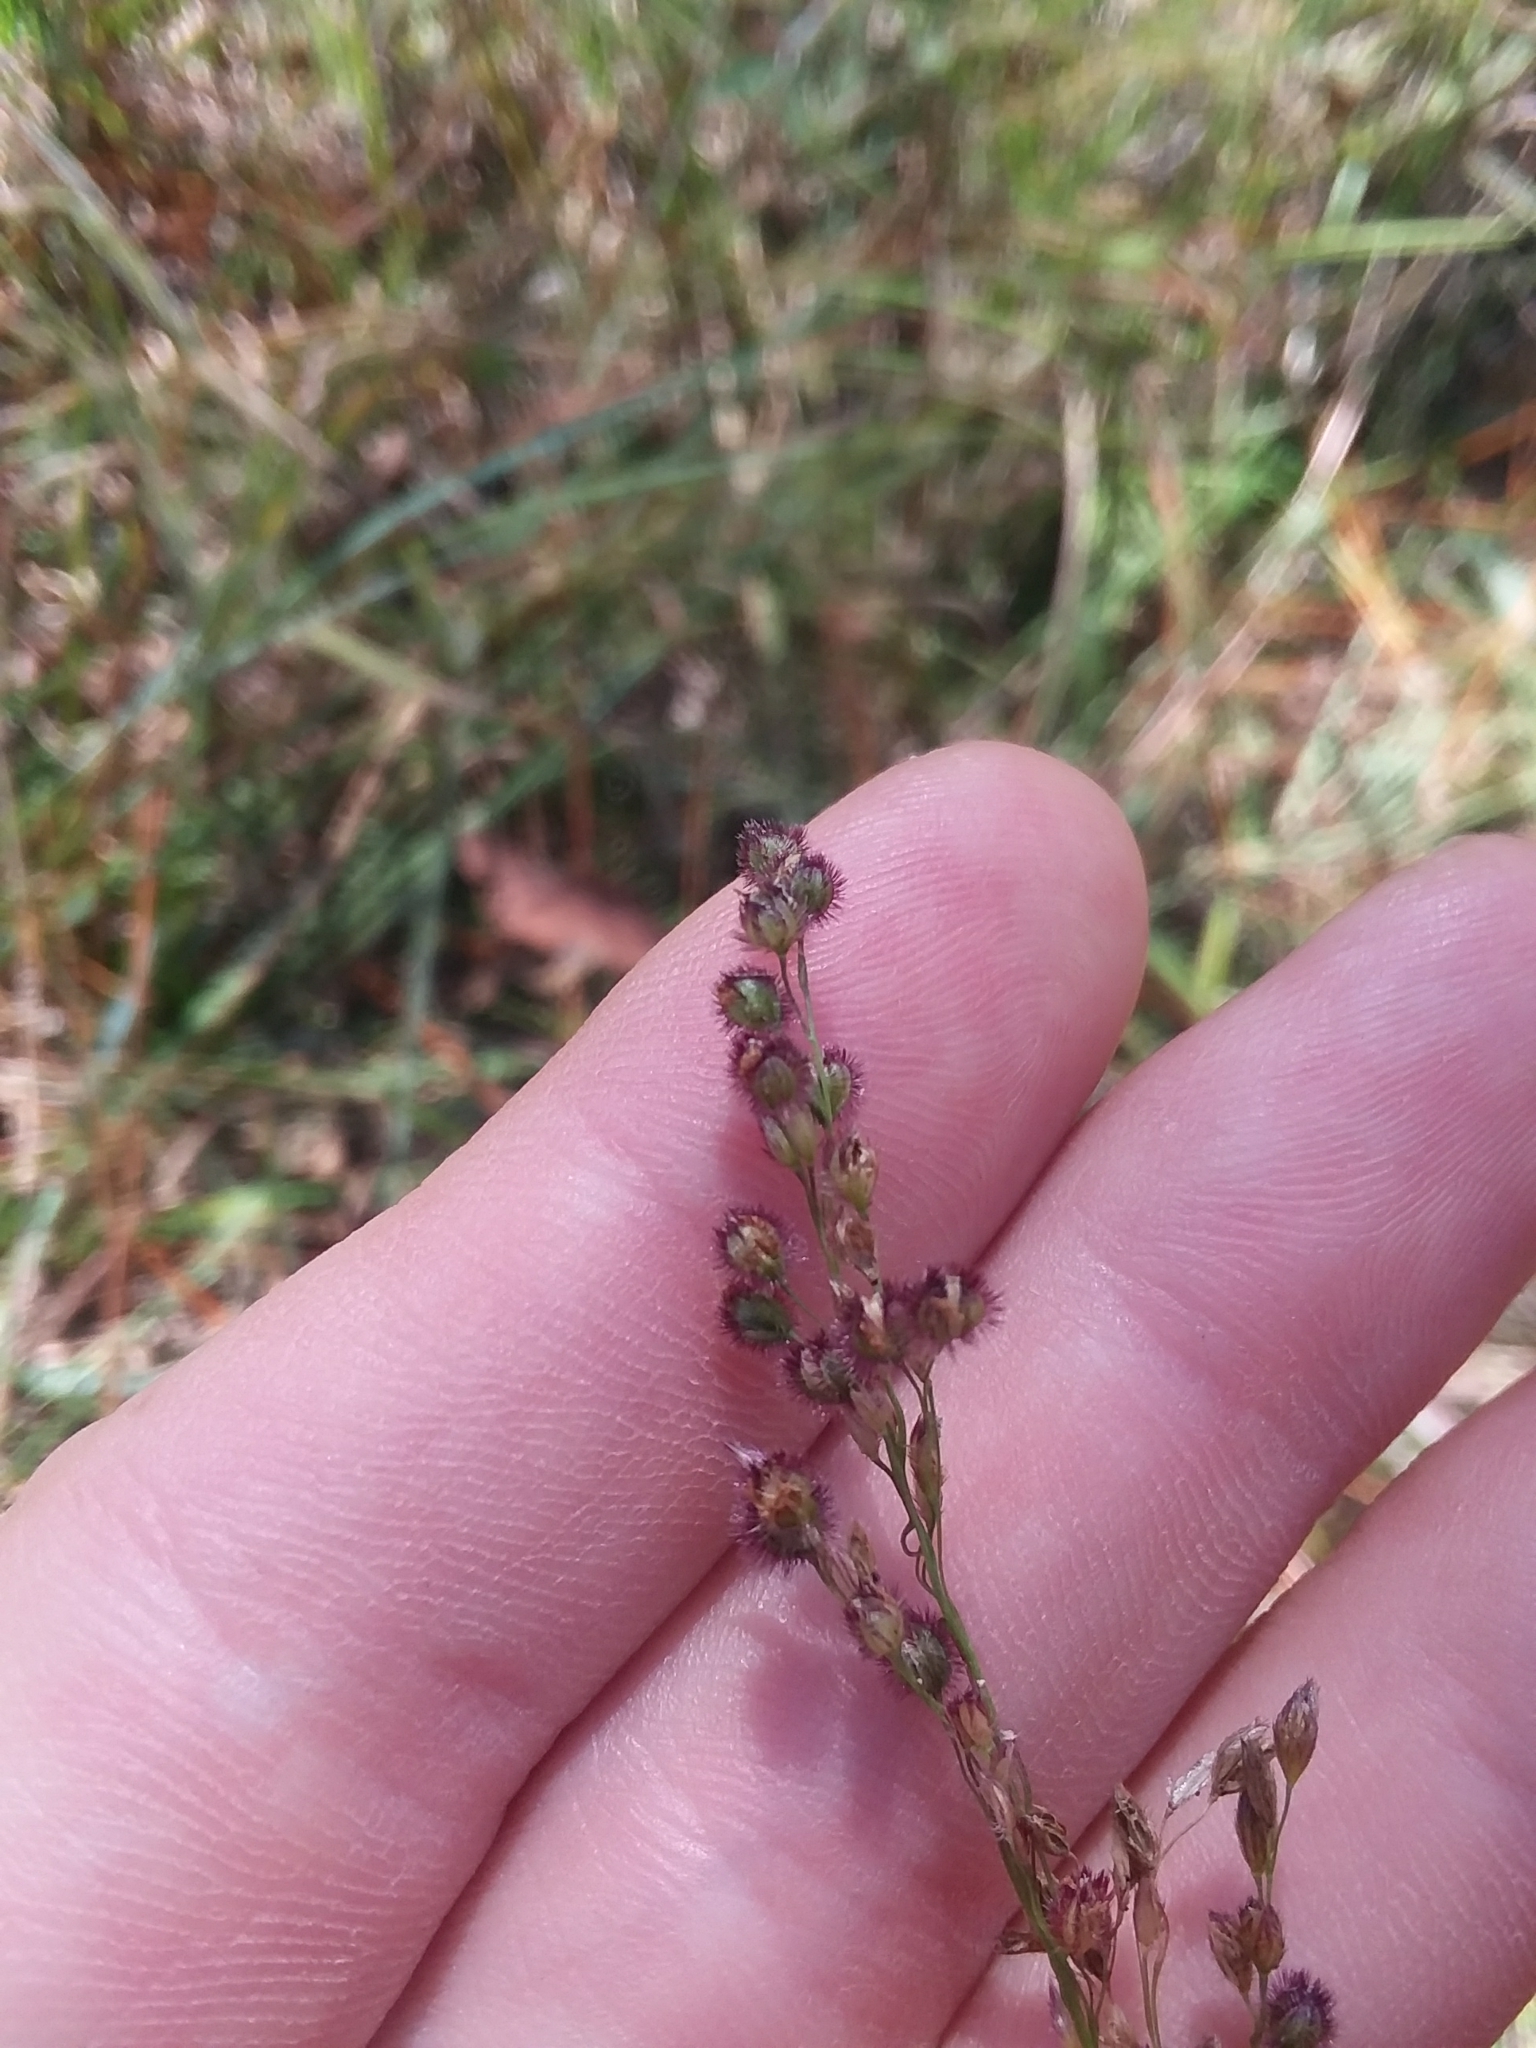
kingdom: Plantae
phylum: Tracheophyta
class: Liliopsida
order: Poales
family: Poaceae
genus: Anthenantia
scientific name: Anthenantia rufa
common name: Purple silkyscale
